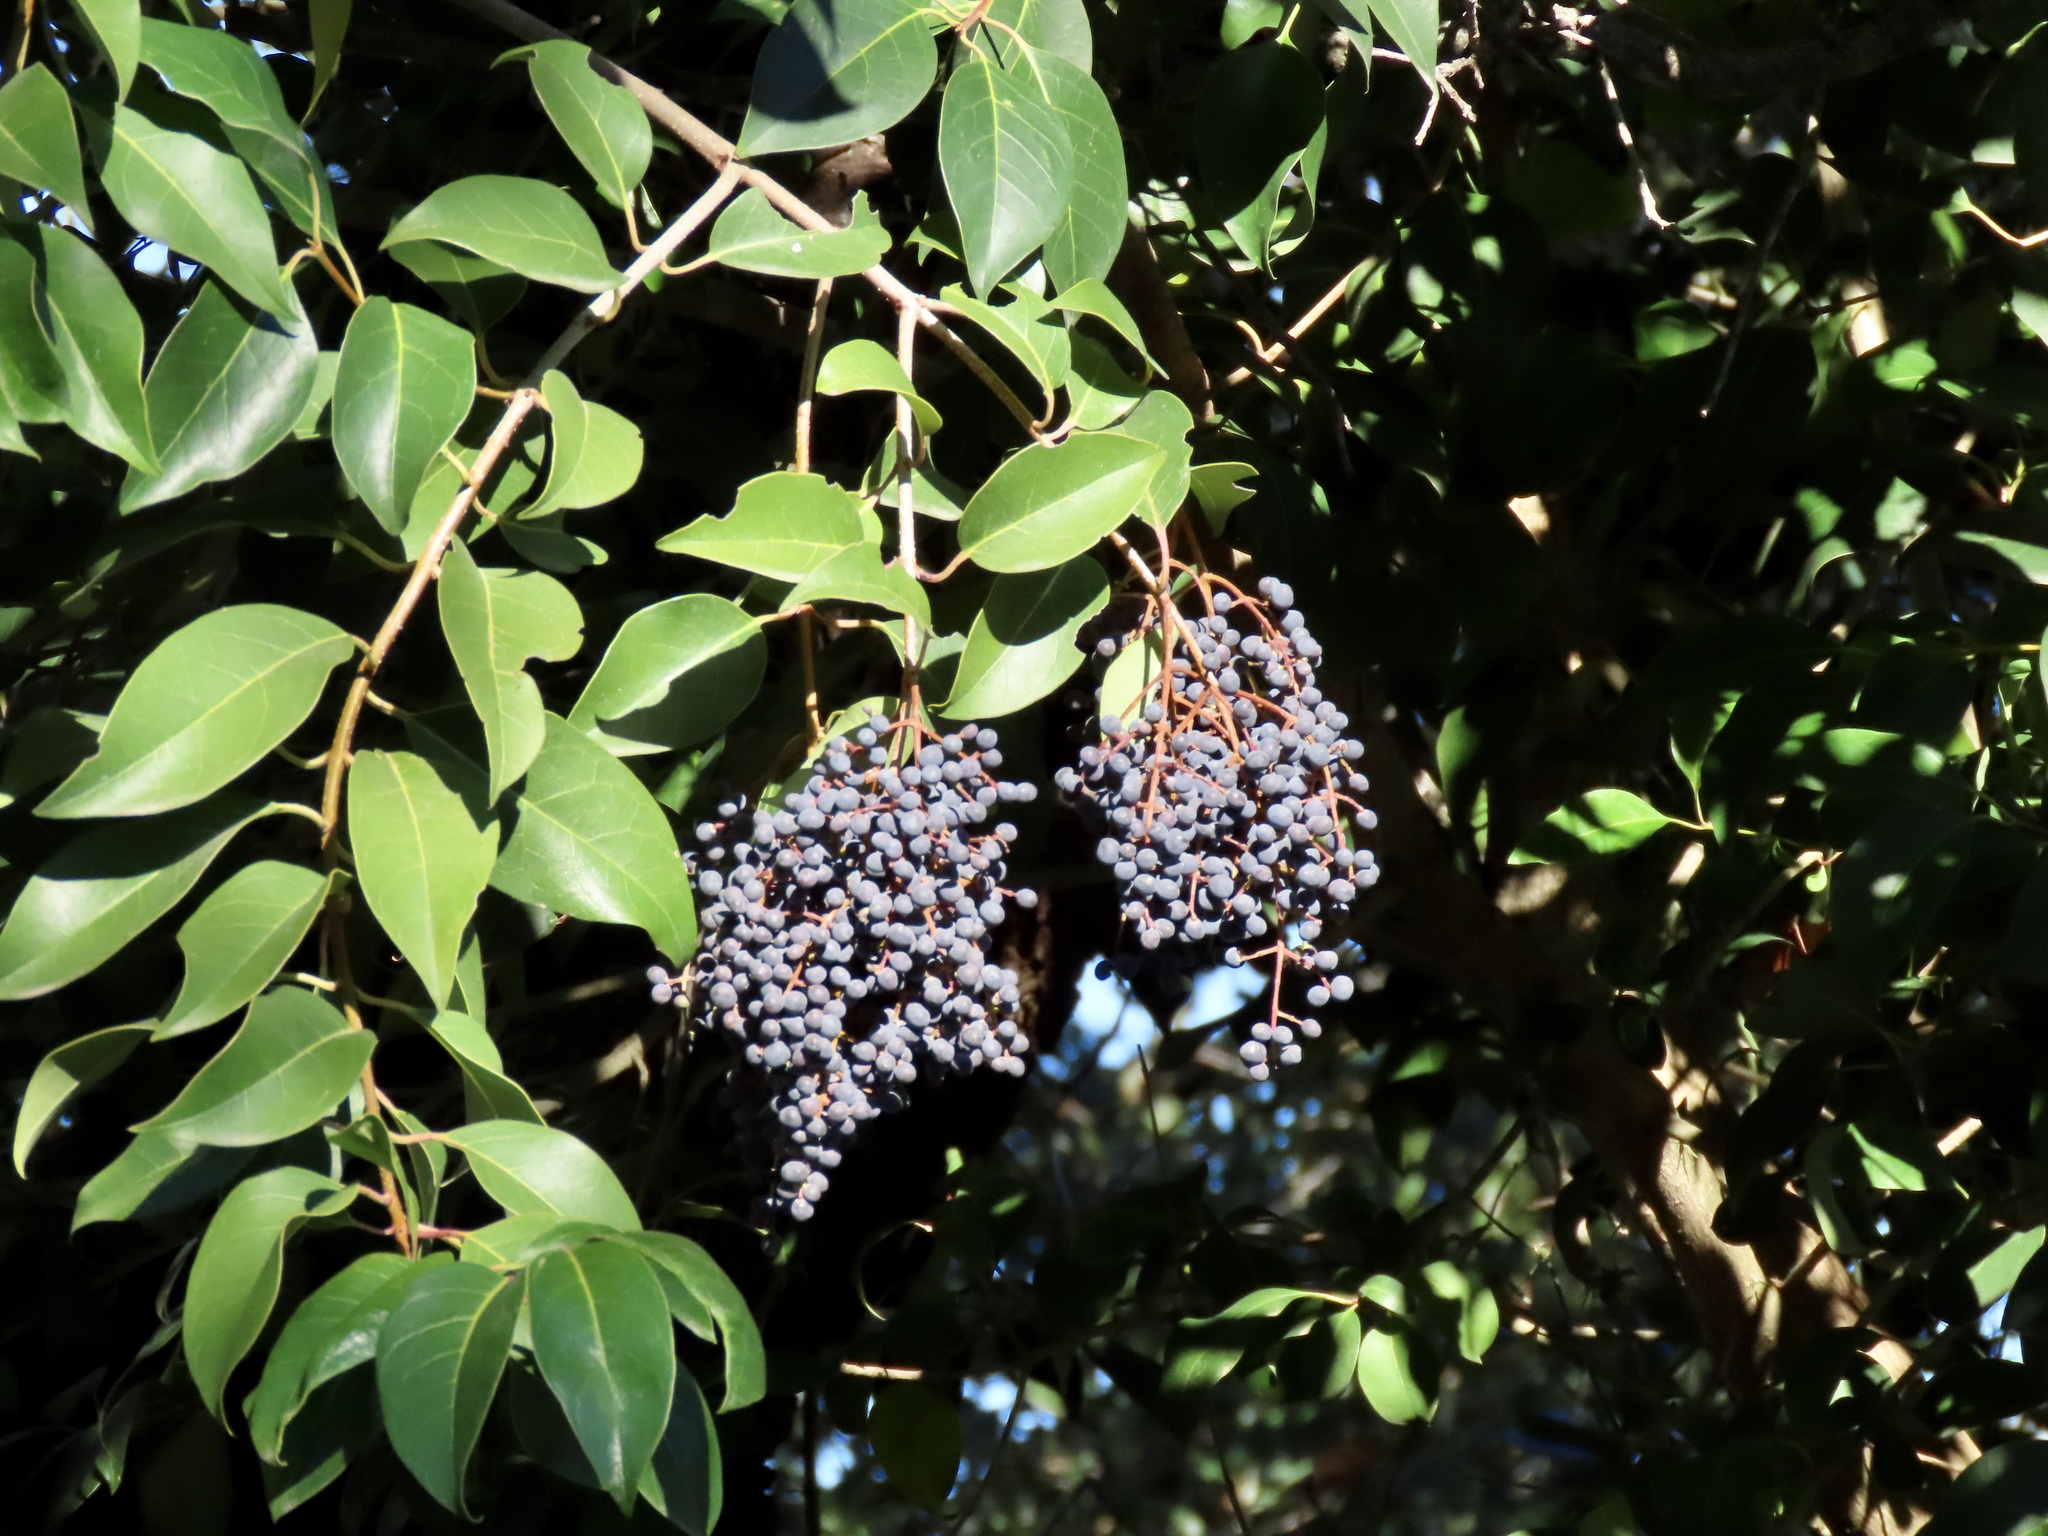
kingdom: Plantae
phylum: Tracheophyta
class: Magnoliopsida
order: Lamiales
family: Oleaceae
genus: Ligustrum
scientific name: Ligustrum lucidum
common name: Glossy privet
